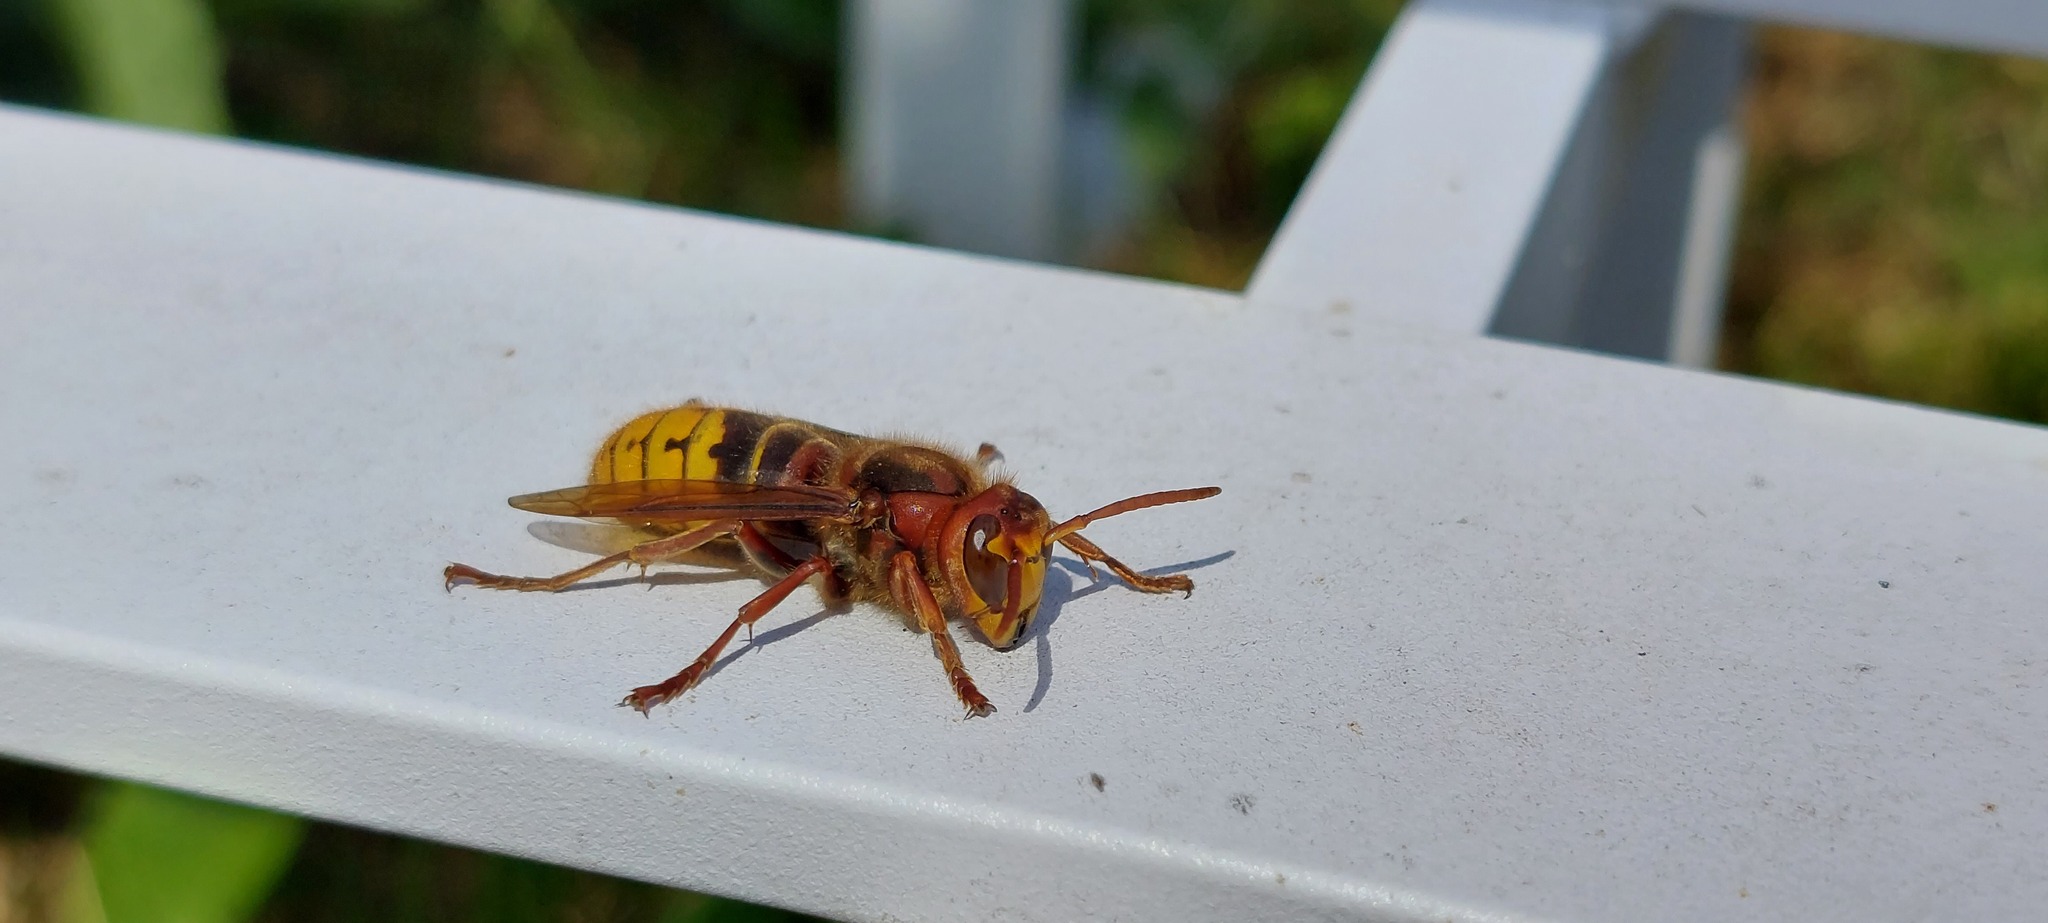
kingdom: Animalia
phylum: Arthropoda
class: Insecta
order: Hymenoptera
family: Vespidae
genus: Vespa
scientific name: Vespa crabro
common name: Hornet
